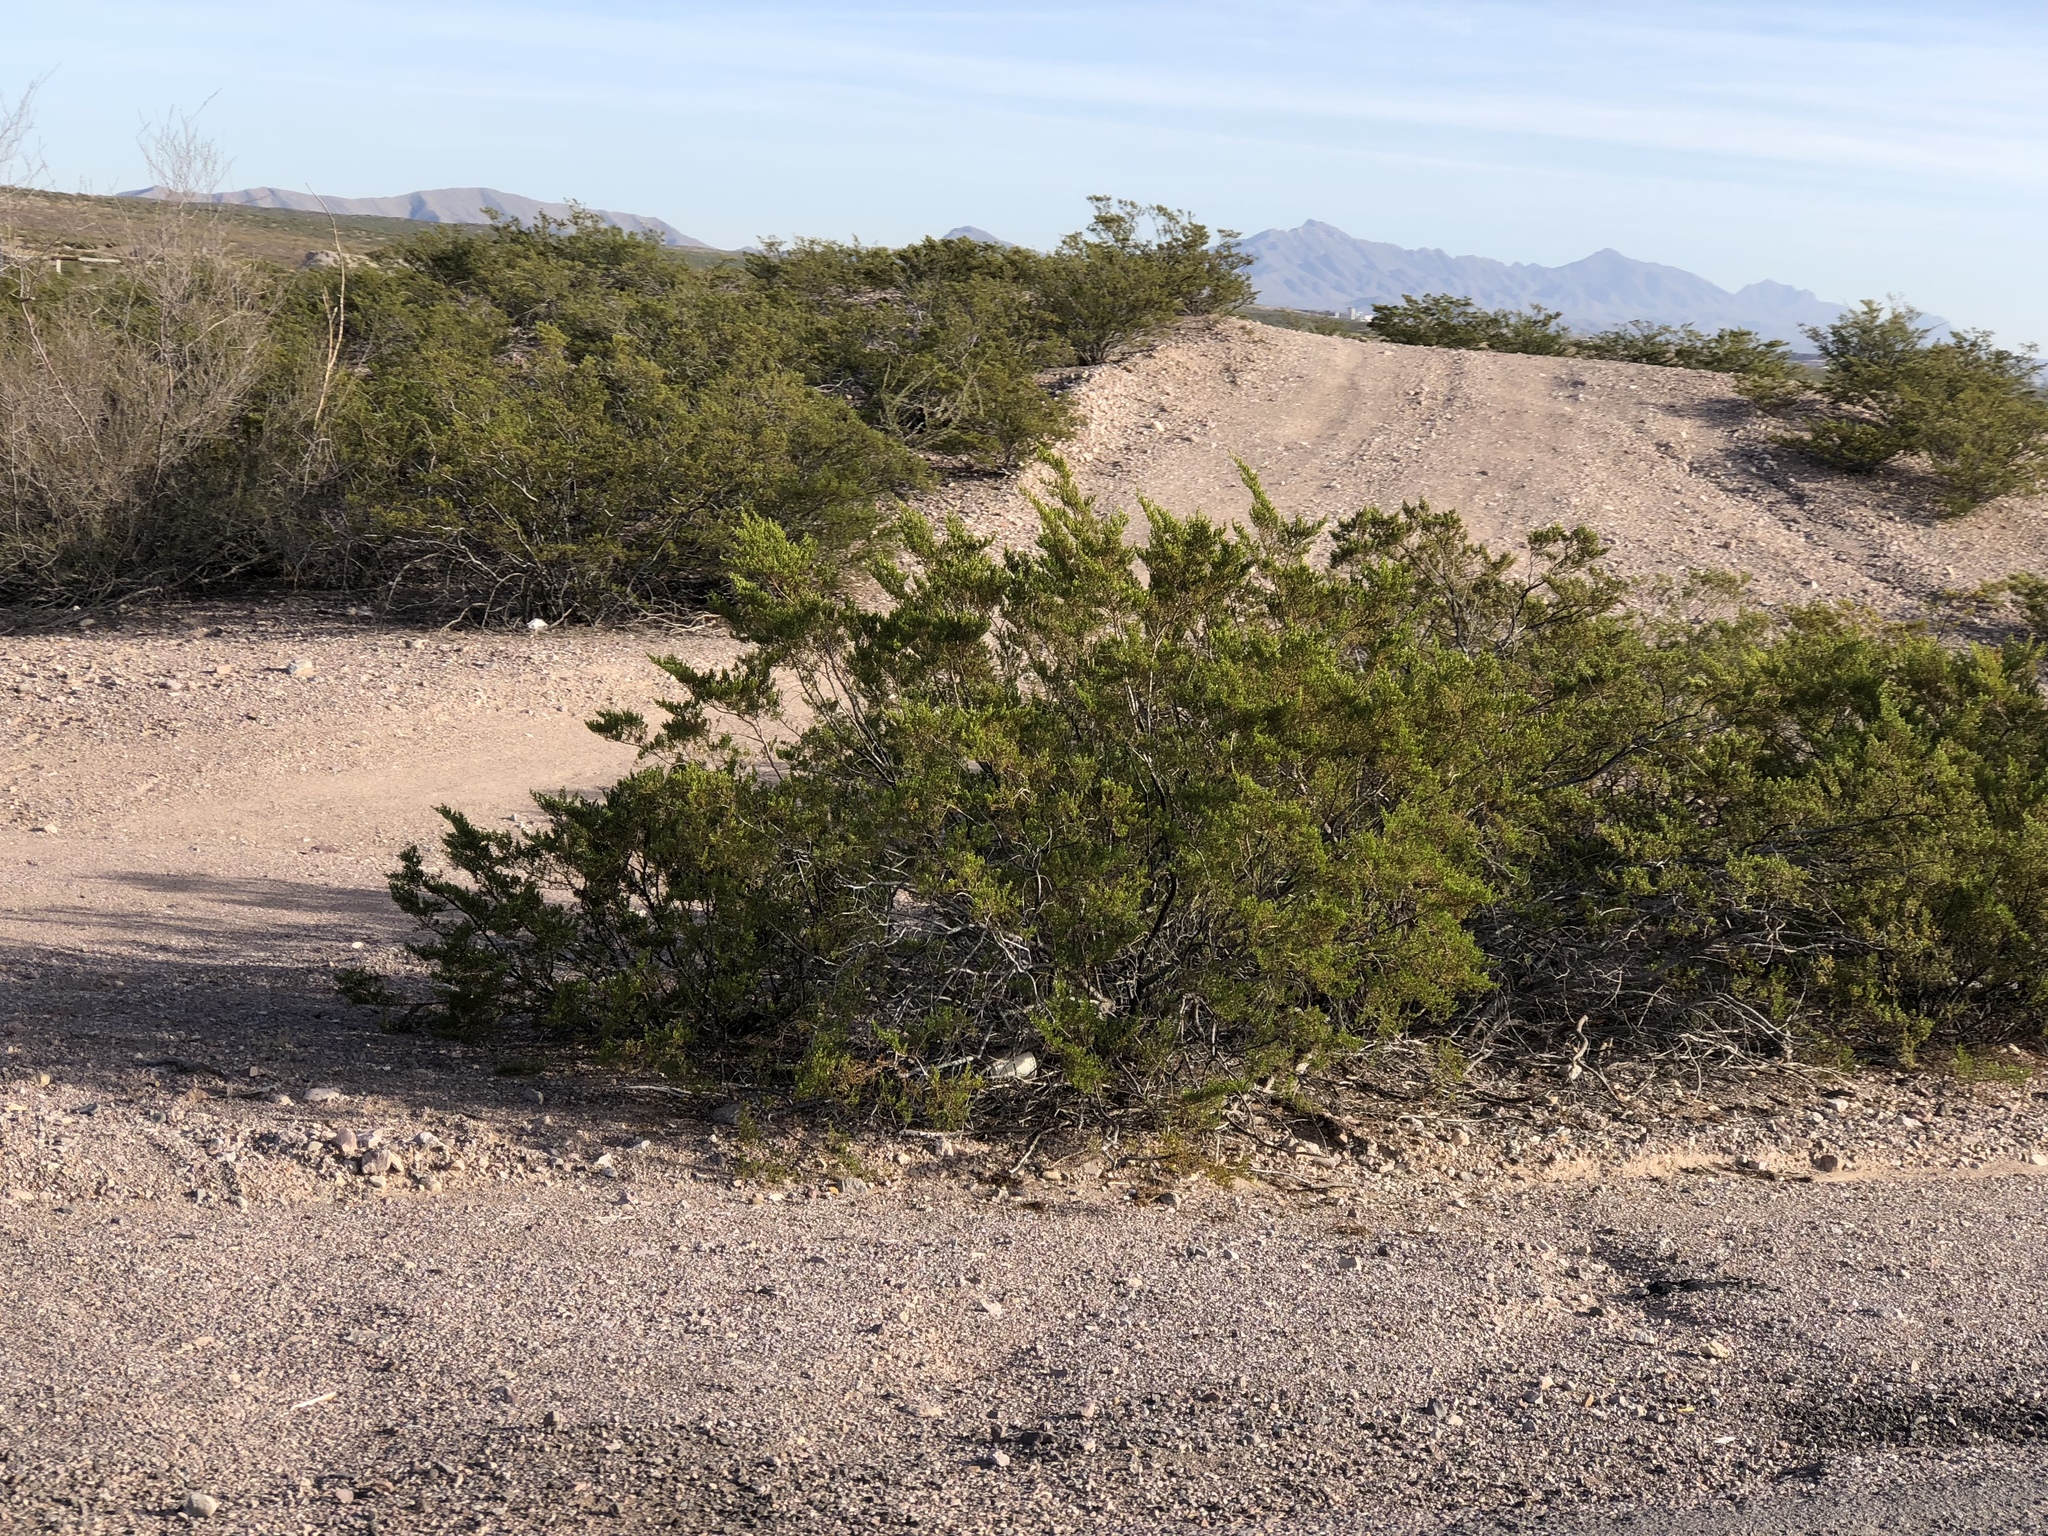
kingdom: Plantae
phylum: Tracheophyta
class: Magnoliopsida
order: Zygophyllales
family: Zygophyllaceae
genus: Larrea
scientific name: Larrea tridentata
